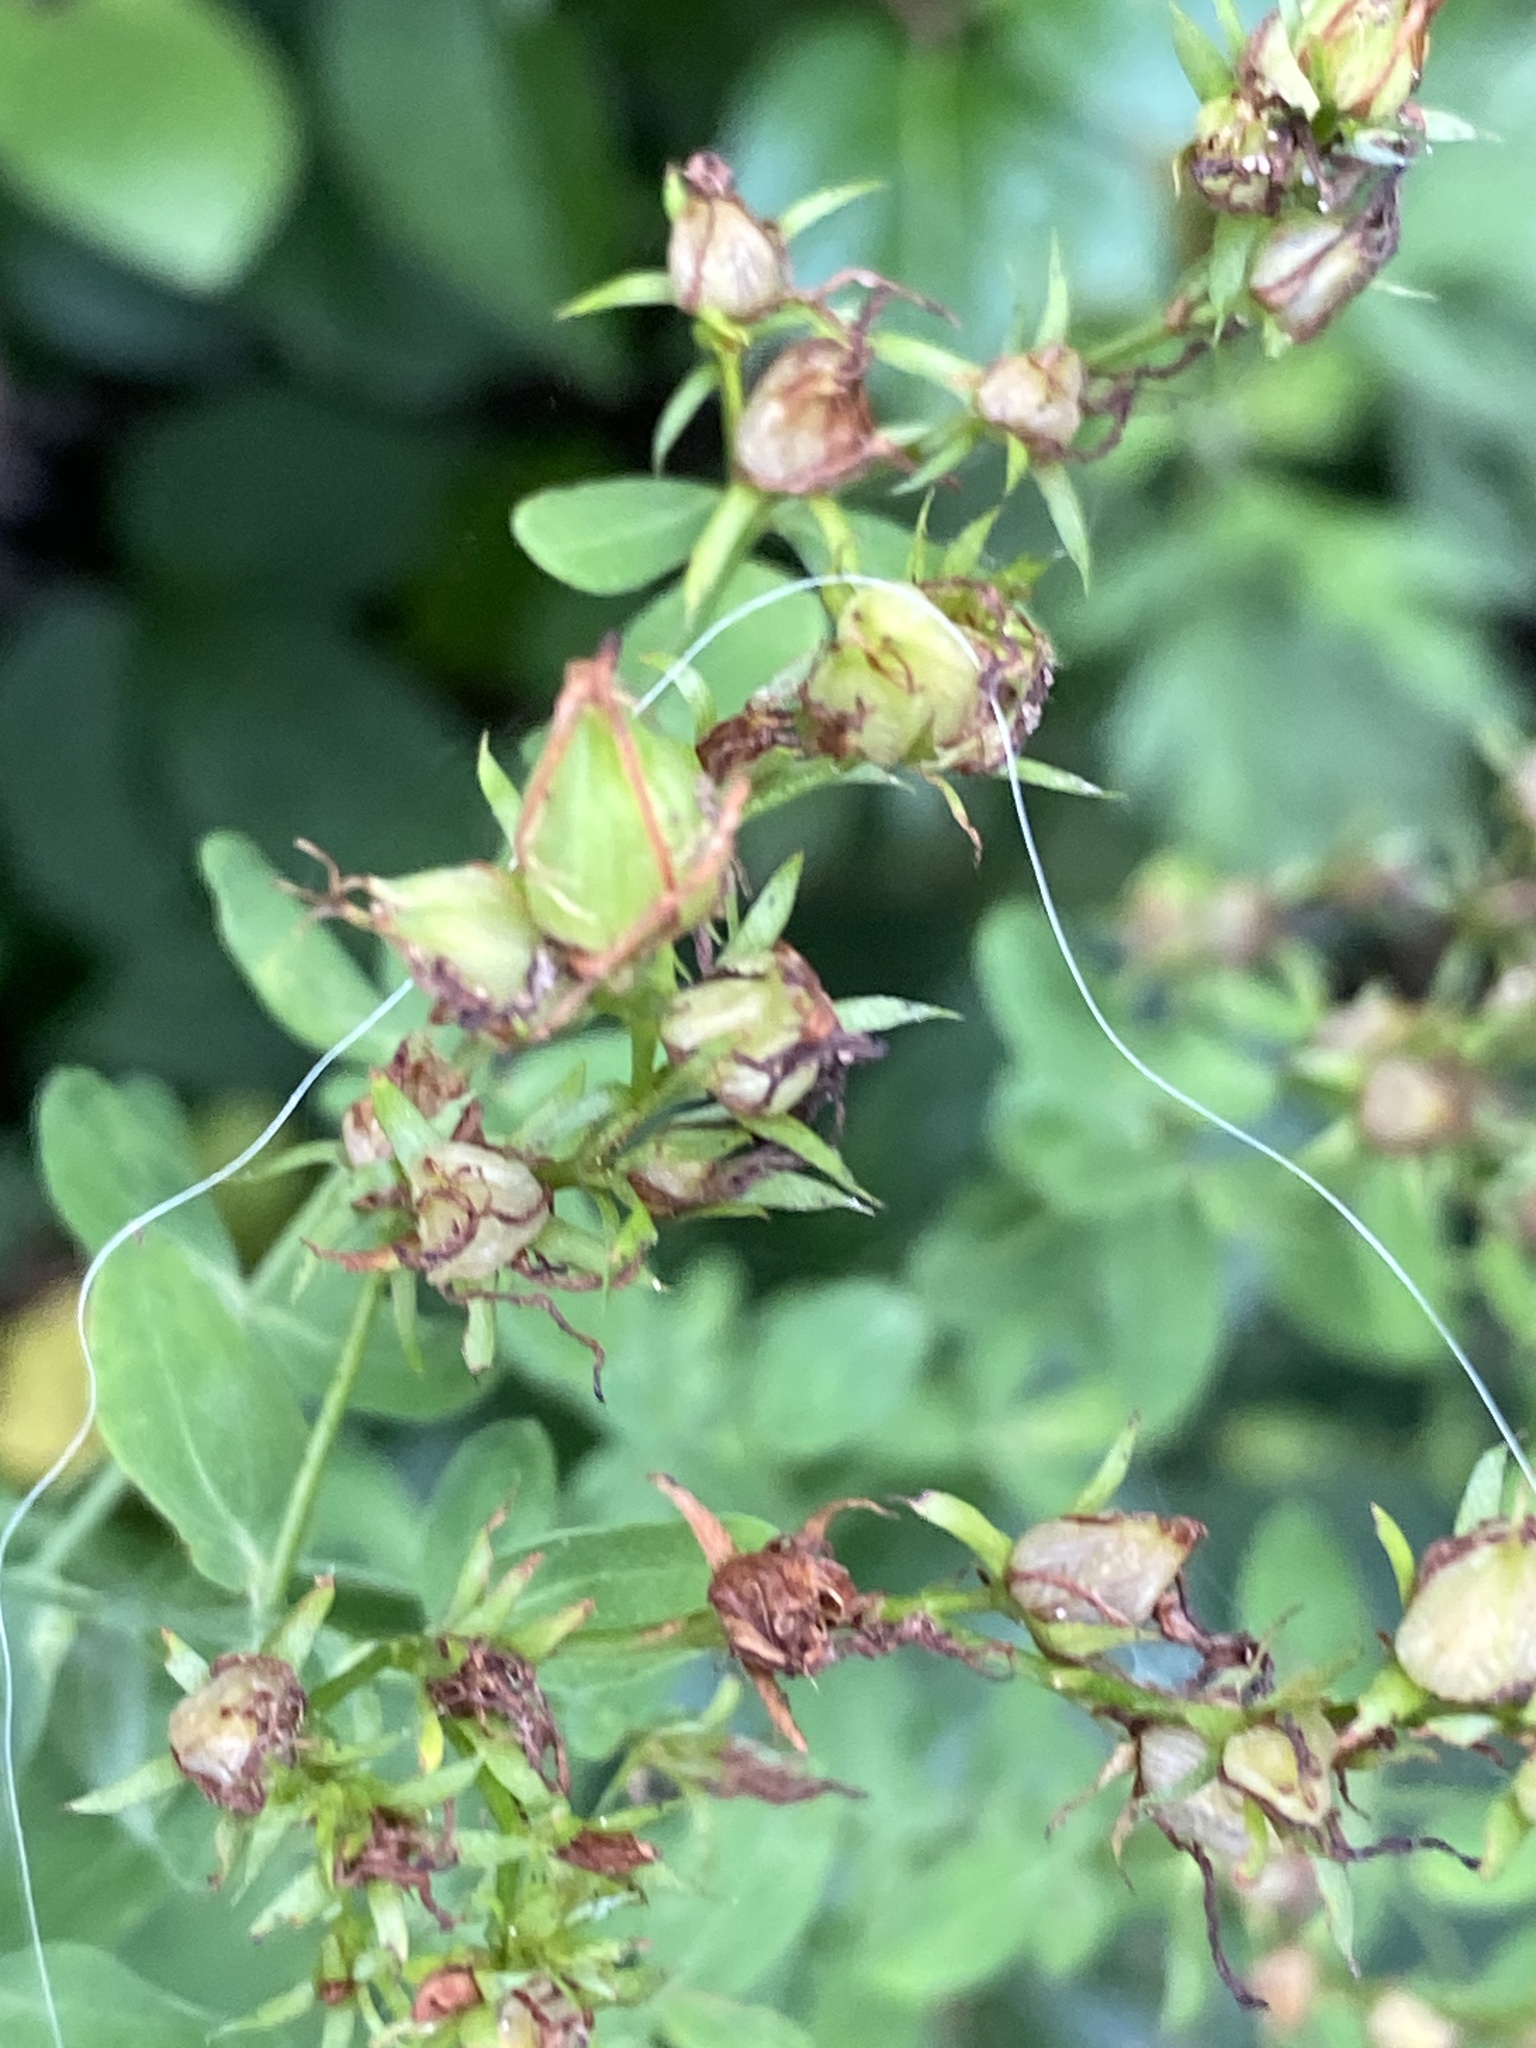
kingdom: Plantae
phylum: Tracheophyta
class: Magnoliopsida
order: Malpighiales
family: Hypericaceae
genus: Hypericum
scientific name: Hypericum perforatum
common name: Common st. johnswort
